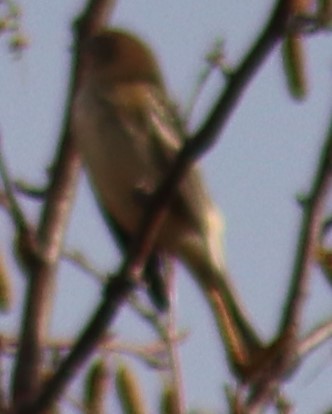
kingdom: Animalia
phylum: Chordata
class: Aves
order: Passeriformes
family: Parulidae
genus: Setophaga
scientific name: Setophaga coronata
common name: Myrtle warbler
